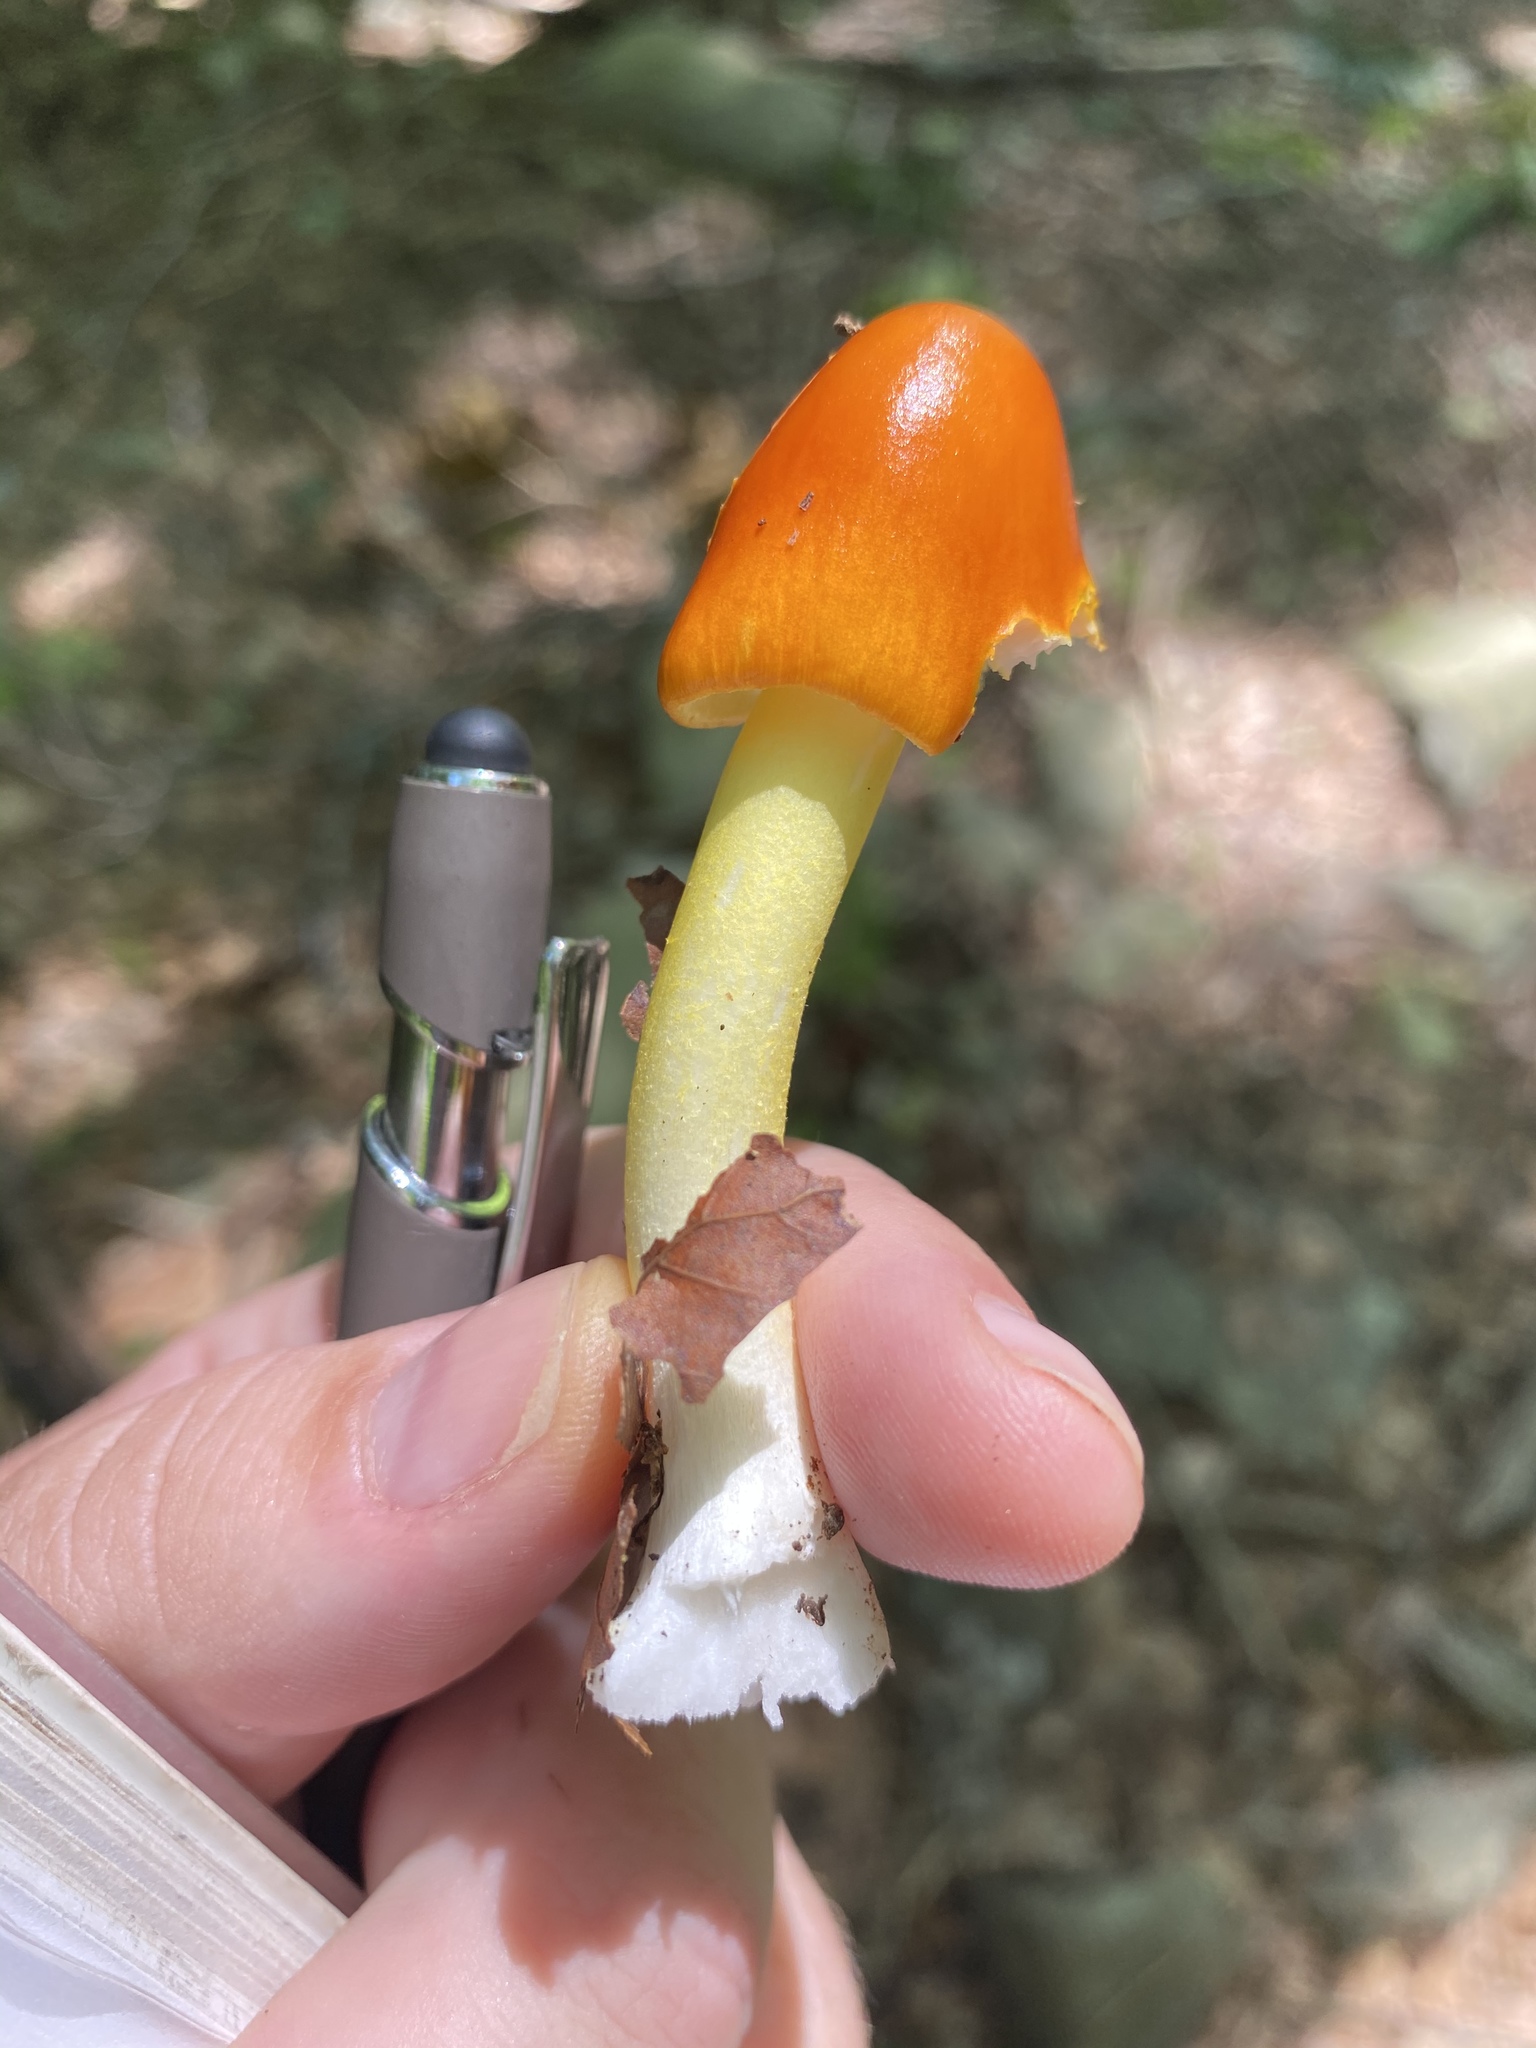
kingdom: Fungi
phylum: Basidiomycota
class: Agaricomycetes
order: Agaricales
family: Amanitaceae
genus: Amanita
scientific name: Amanita flavoconia
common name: Yellow patches
